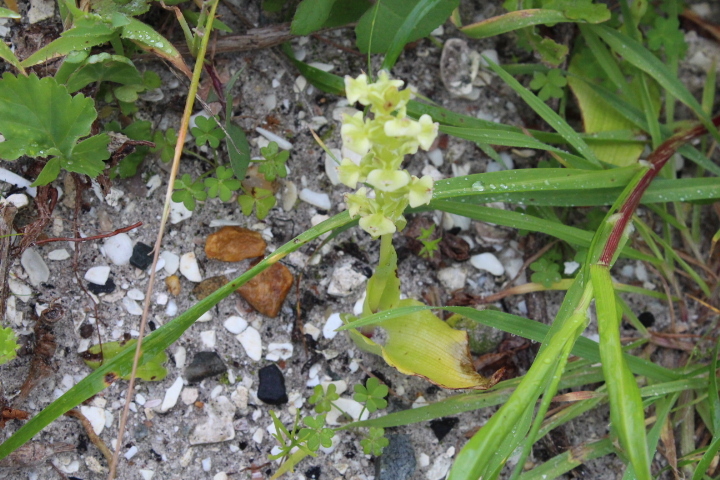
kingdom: Plantae
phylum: Tracheophyta
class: Liliopsida
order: Asparagales
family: Orchidaceae
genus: Pterygodium
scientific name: Pterygodium volucris
